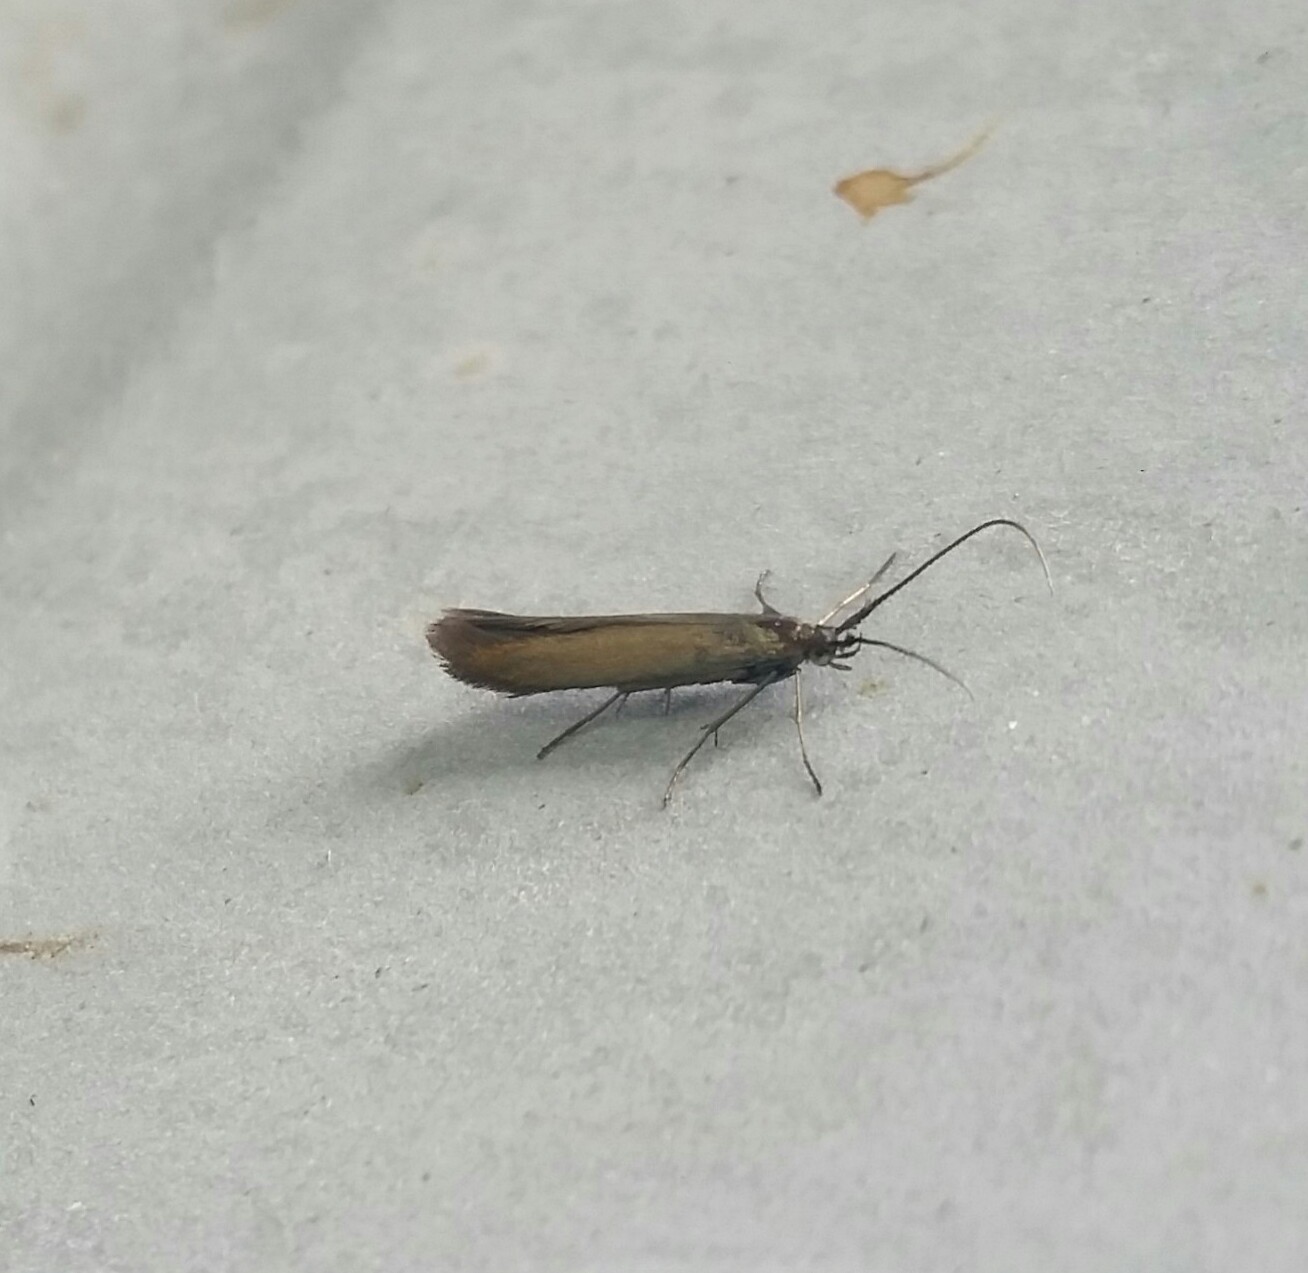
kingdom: Animalia
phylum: Arthropoda
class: Insecta
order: Lepidoptera
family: Coleophoridae
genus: Coleophora
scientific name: Coleophora trifolii
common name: Large clover case-bearer
